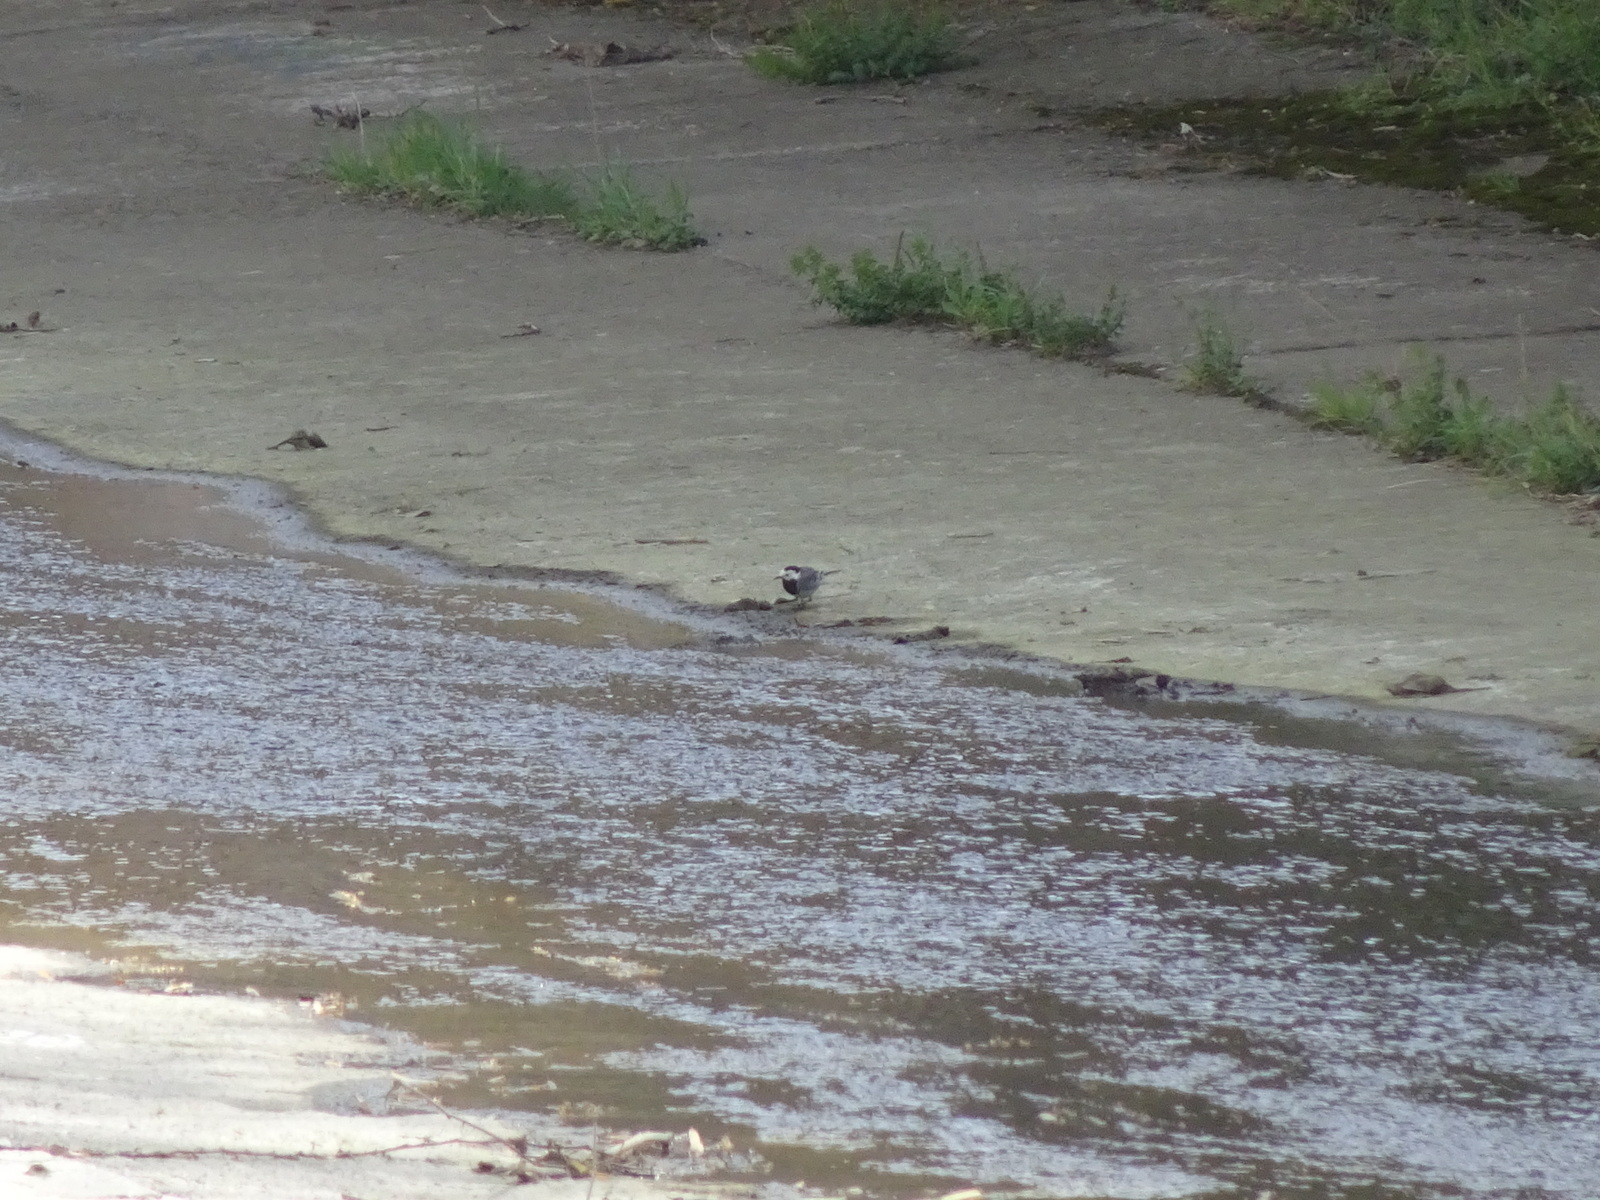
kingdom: Animalia
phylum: Chordata
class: Aves
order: Passeriformes
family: Motacillidae
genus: Motacilla
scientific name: Motacilla alba
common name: White wagtail
